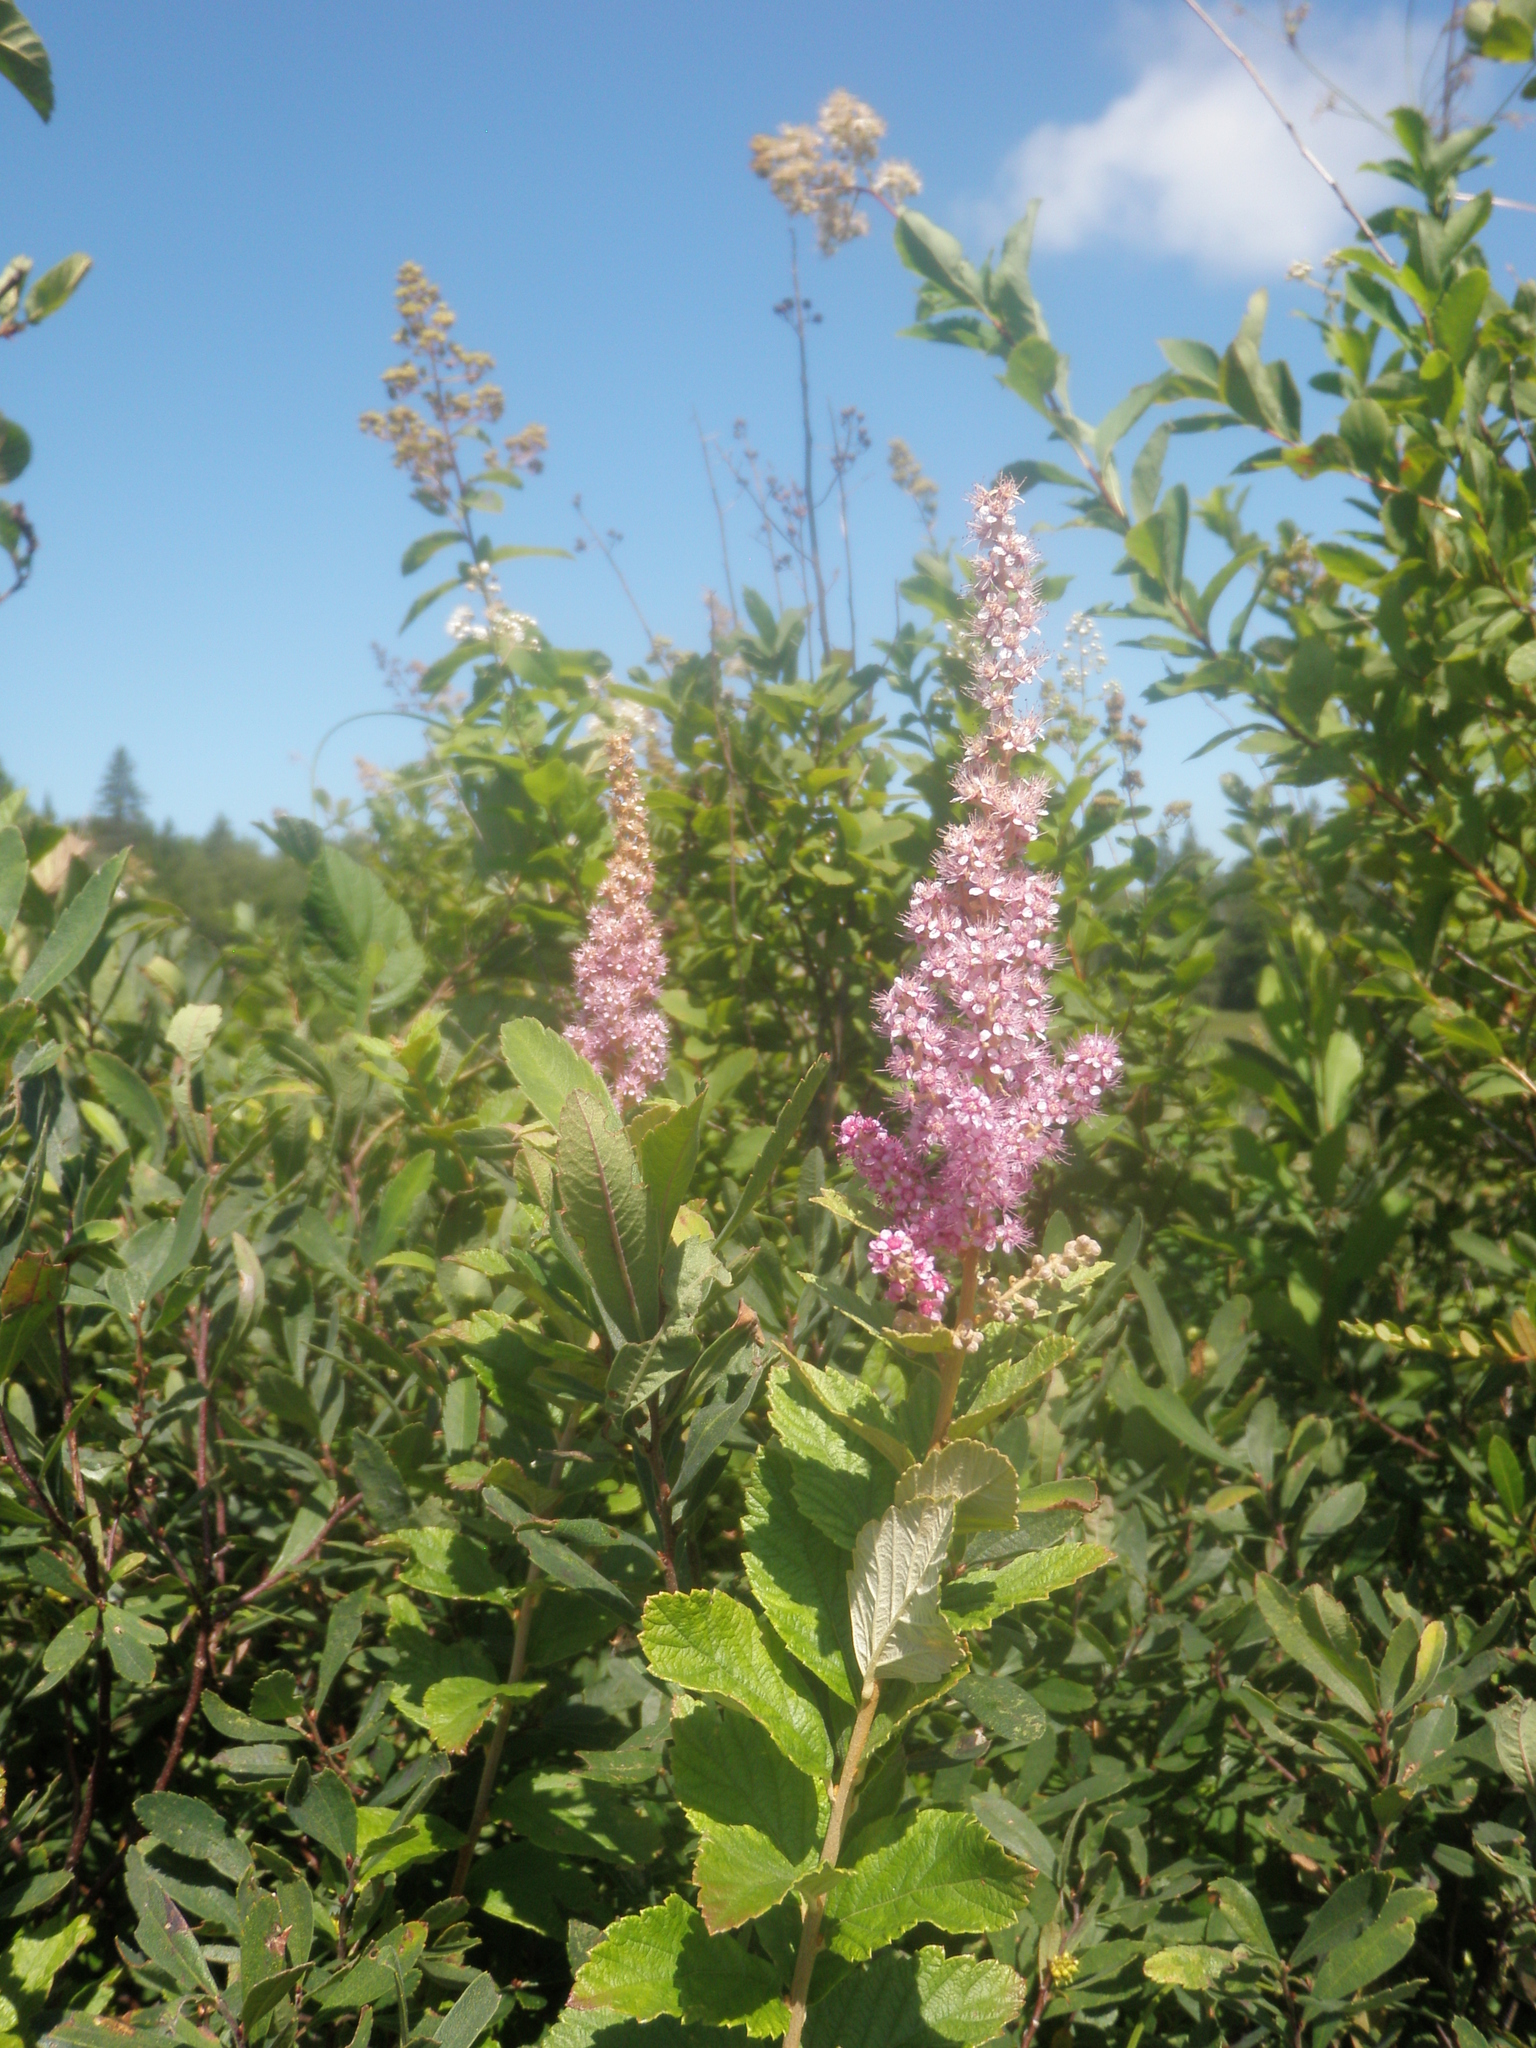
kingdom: Plantae
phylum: Tracheophyta
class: Magnoliopsida
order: Rosales
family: Rosaceae
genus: Spiraea
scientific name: Spiraea tomentosa
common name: Hardhack
